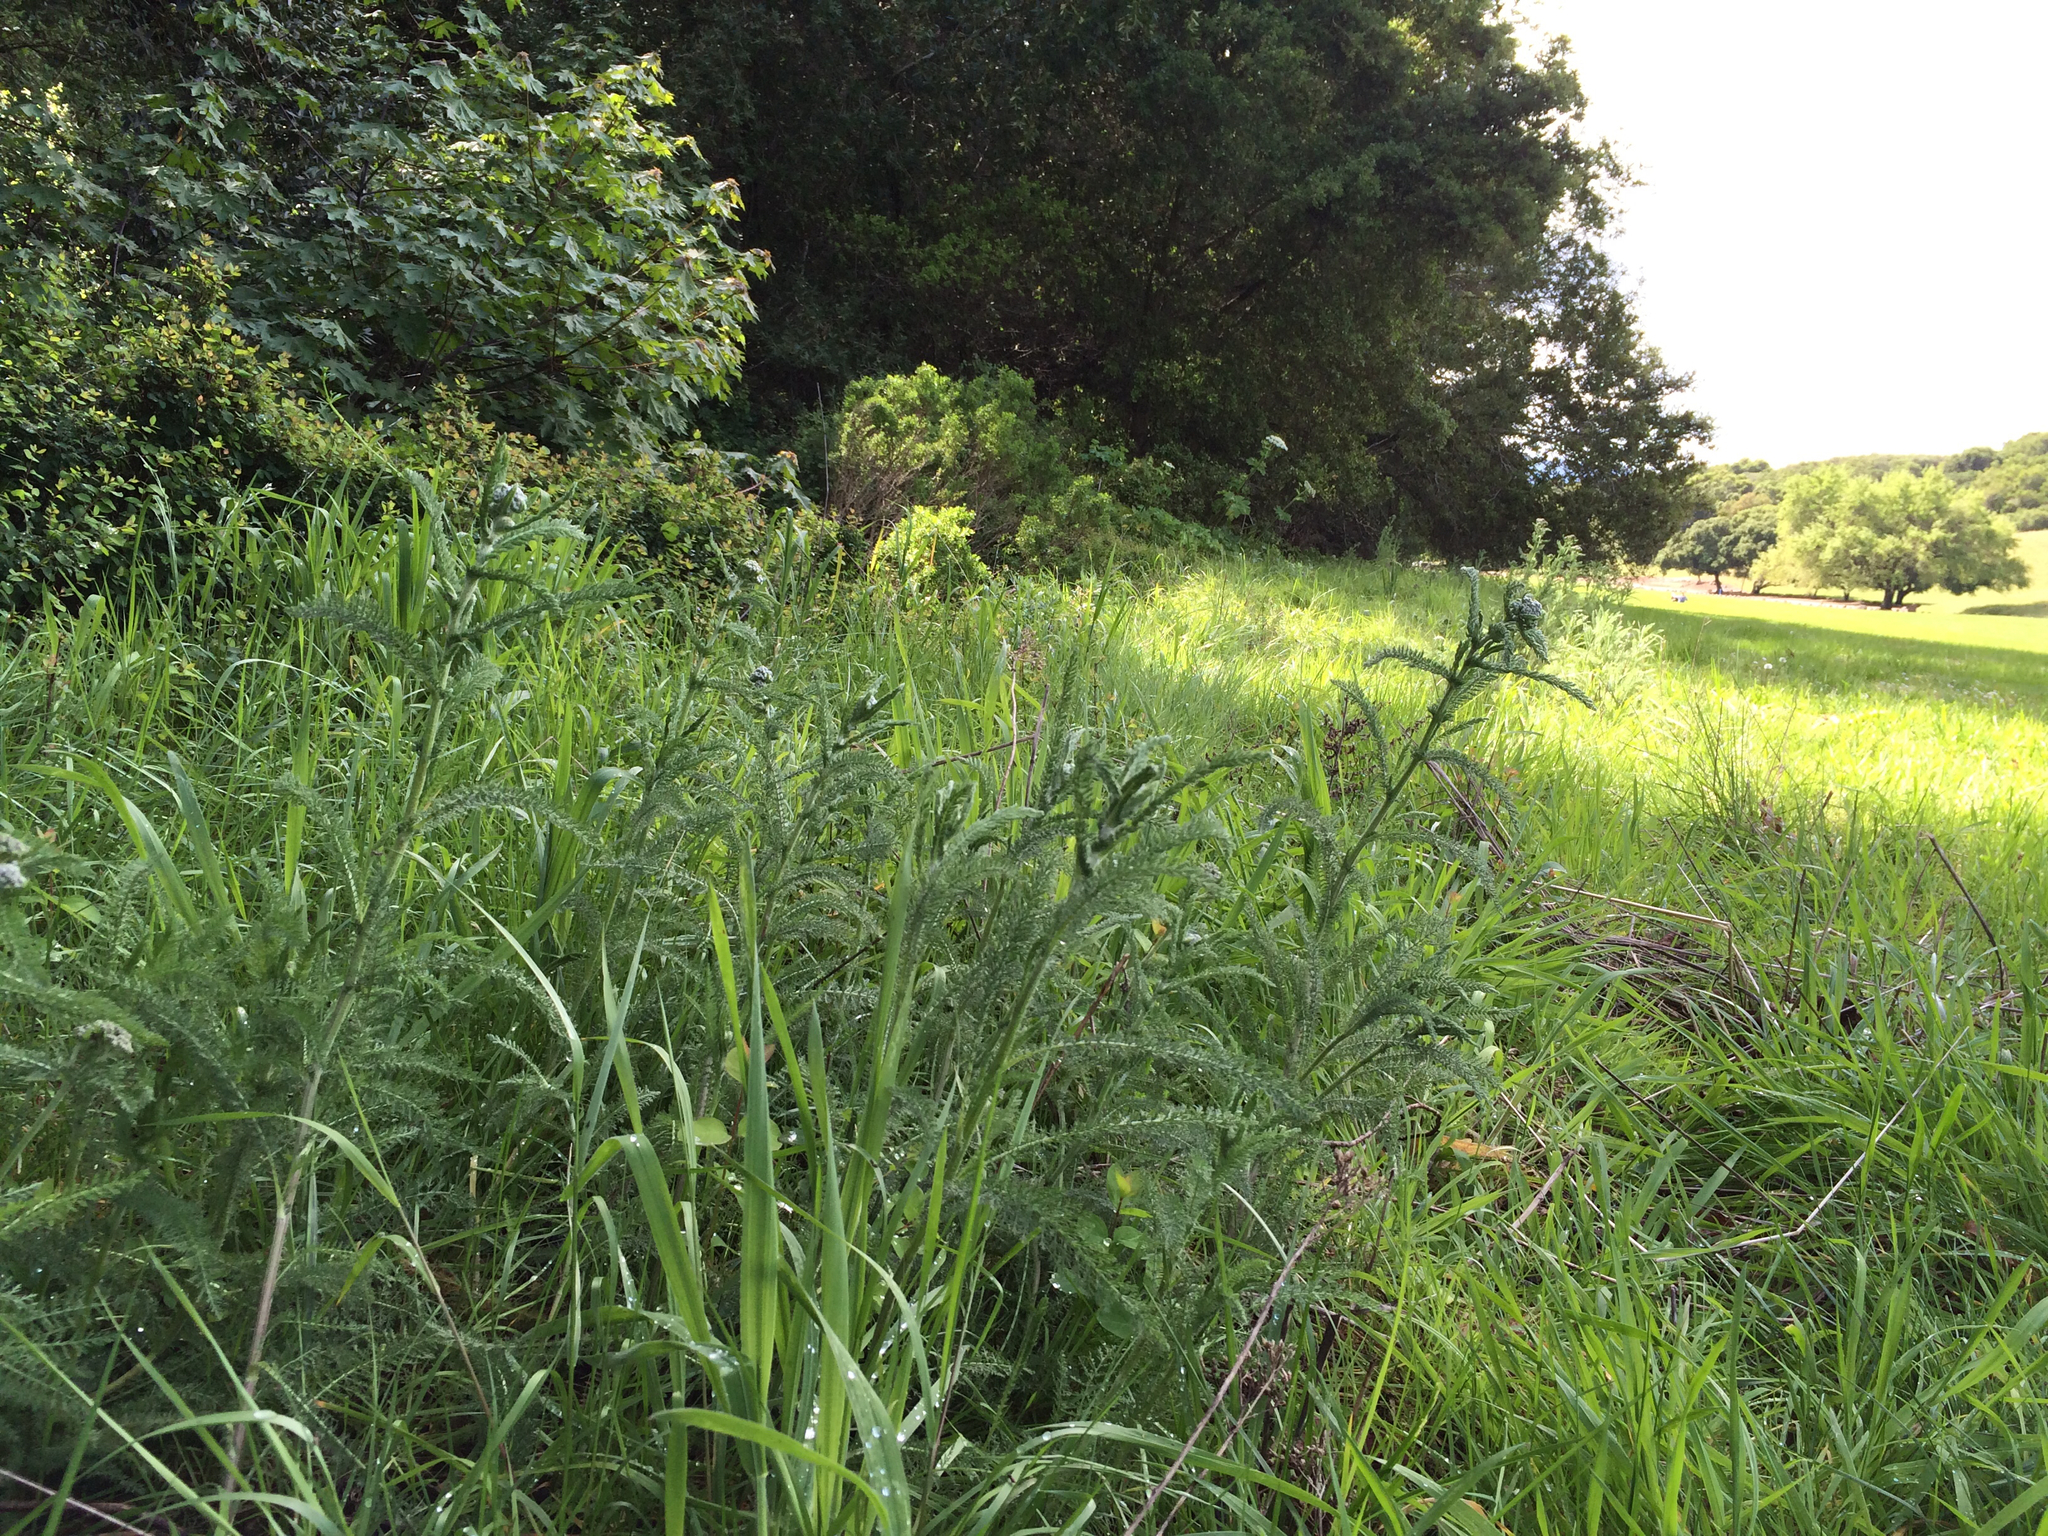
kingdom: Plantae
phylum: Tracheophyta
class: Magnoliopsida
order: Asterales
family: Asteraceae
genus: Achillea
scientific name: Achillea millefolium
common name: Yarrow
